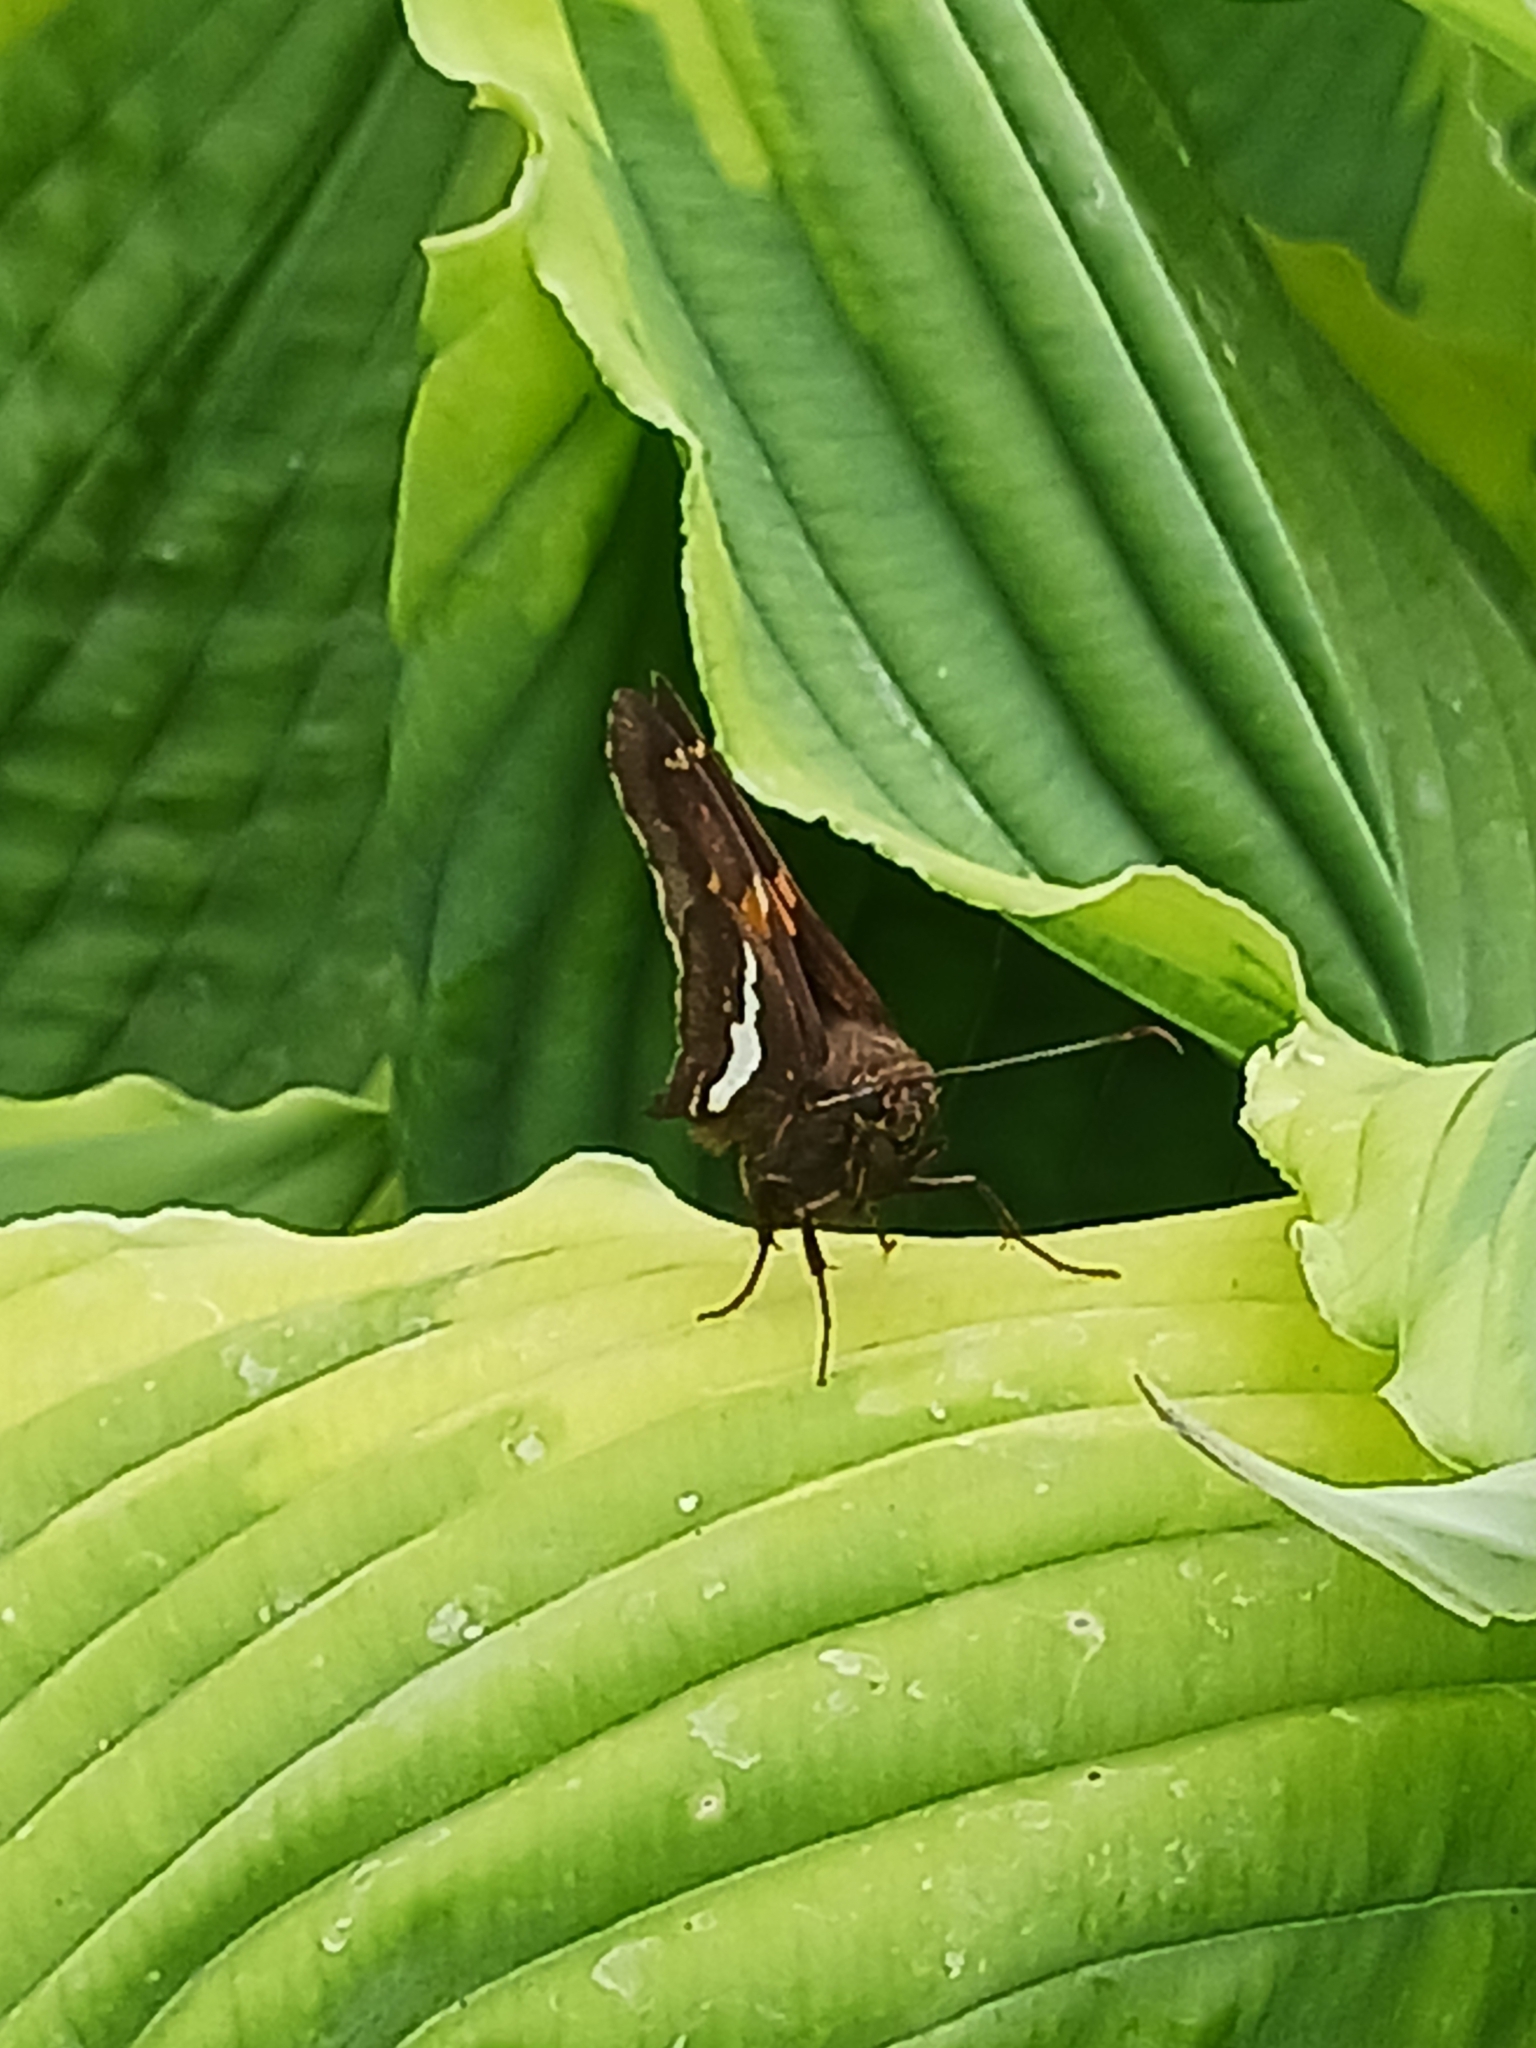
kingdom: Animalia
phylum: Arthropoda
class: Insecta
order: Lepidoptera
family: Hesperiidae
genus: Epargyreus
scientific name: Epargyreus clarus
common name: Silver-spotted skipper
